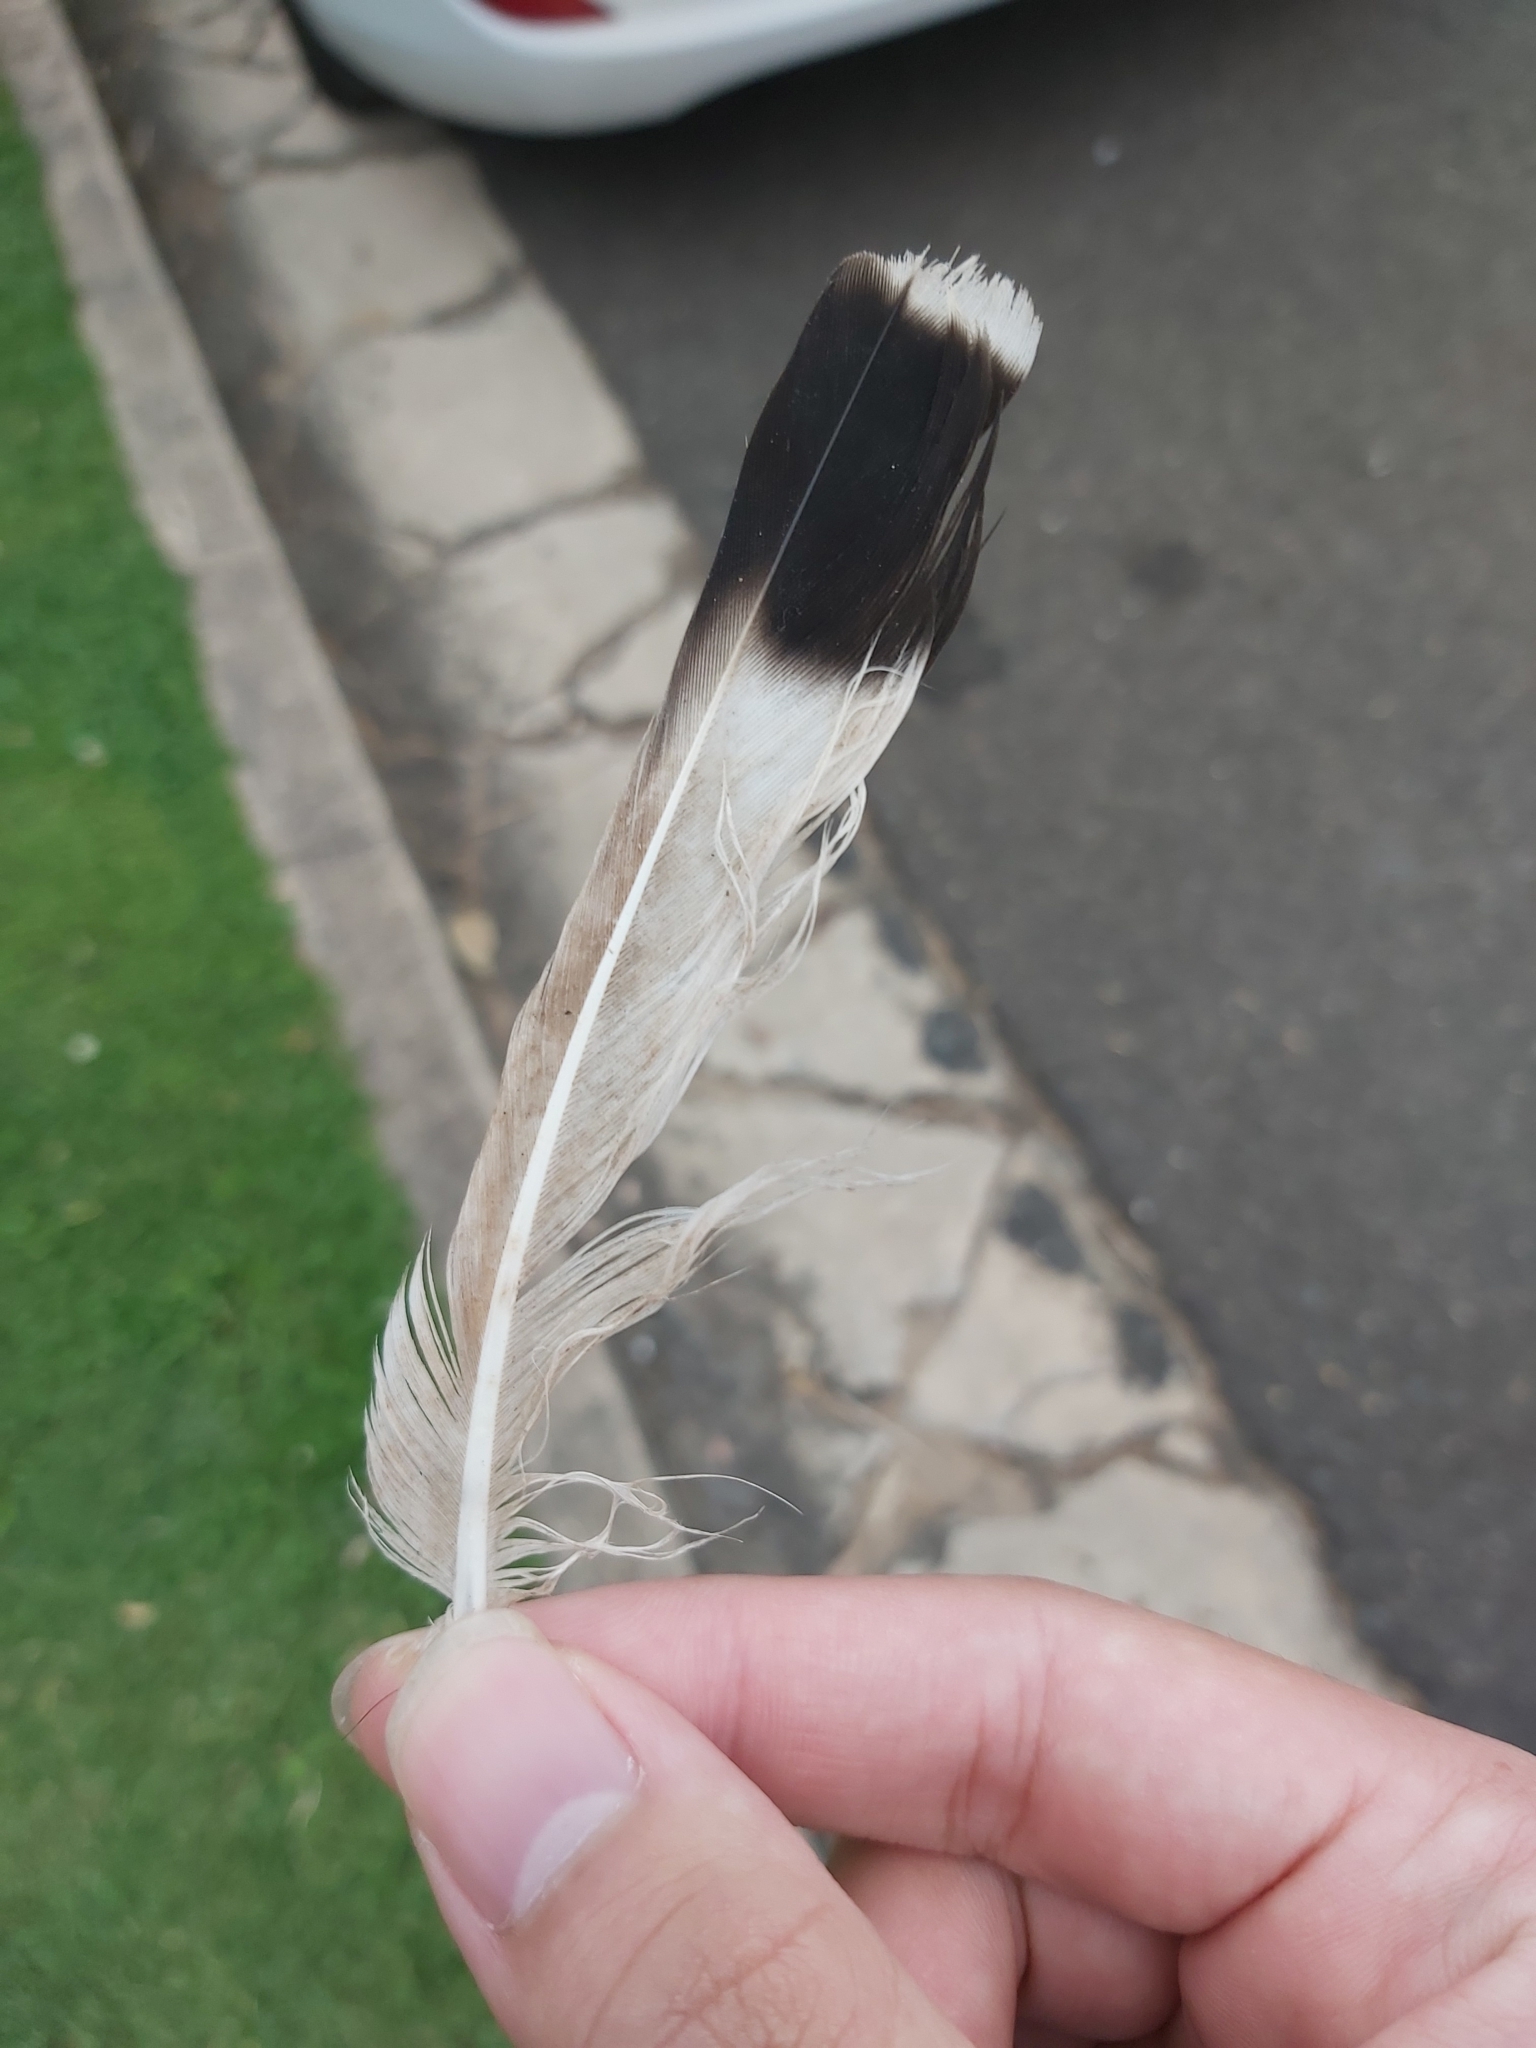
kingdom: Animalia
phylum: Chordata
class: Aves
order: Charadriiformes
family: Charadriidae
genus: Vanellus
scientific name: Vanellus miles
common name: Masked lapwing
